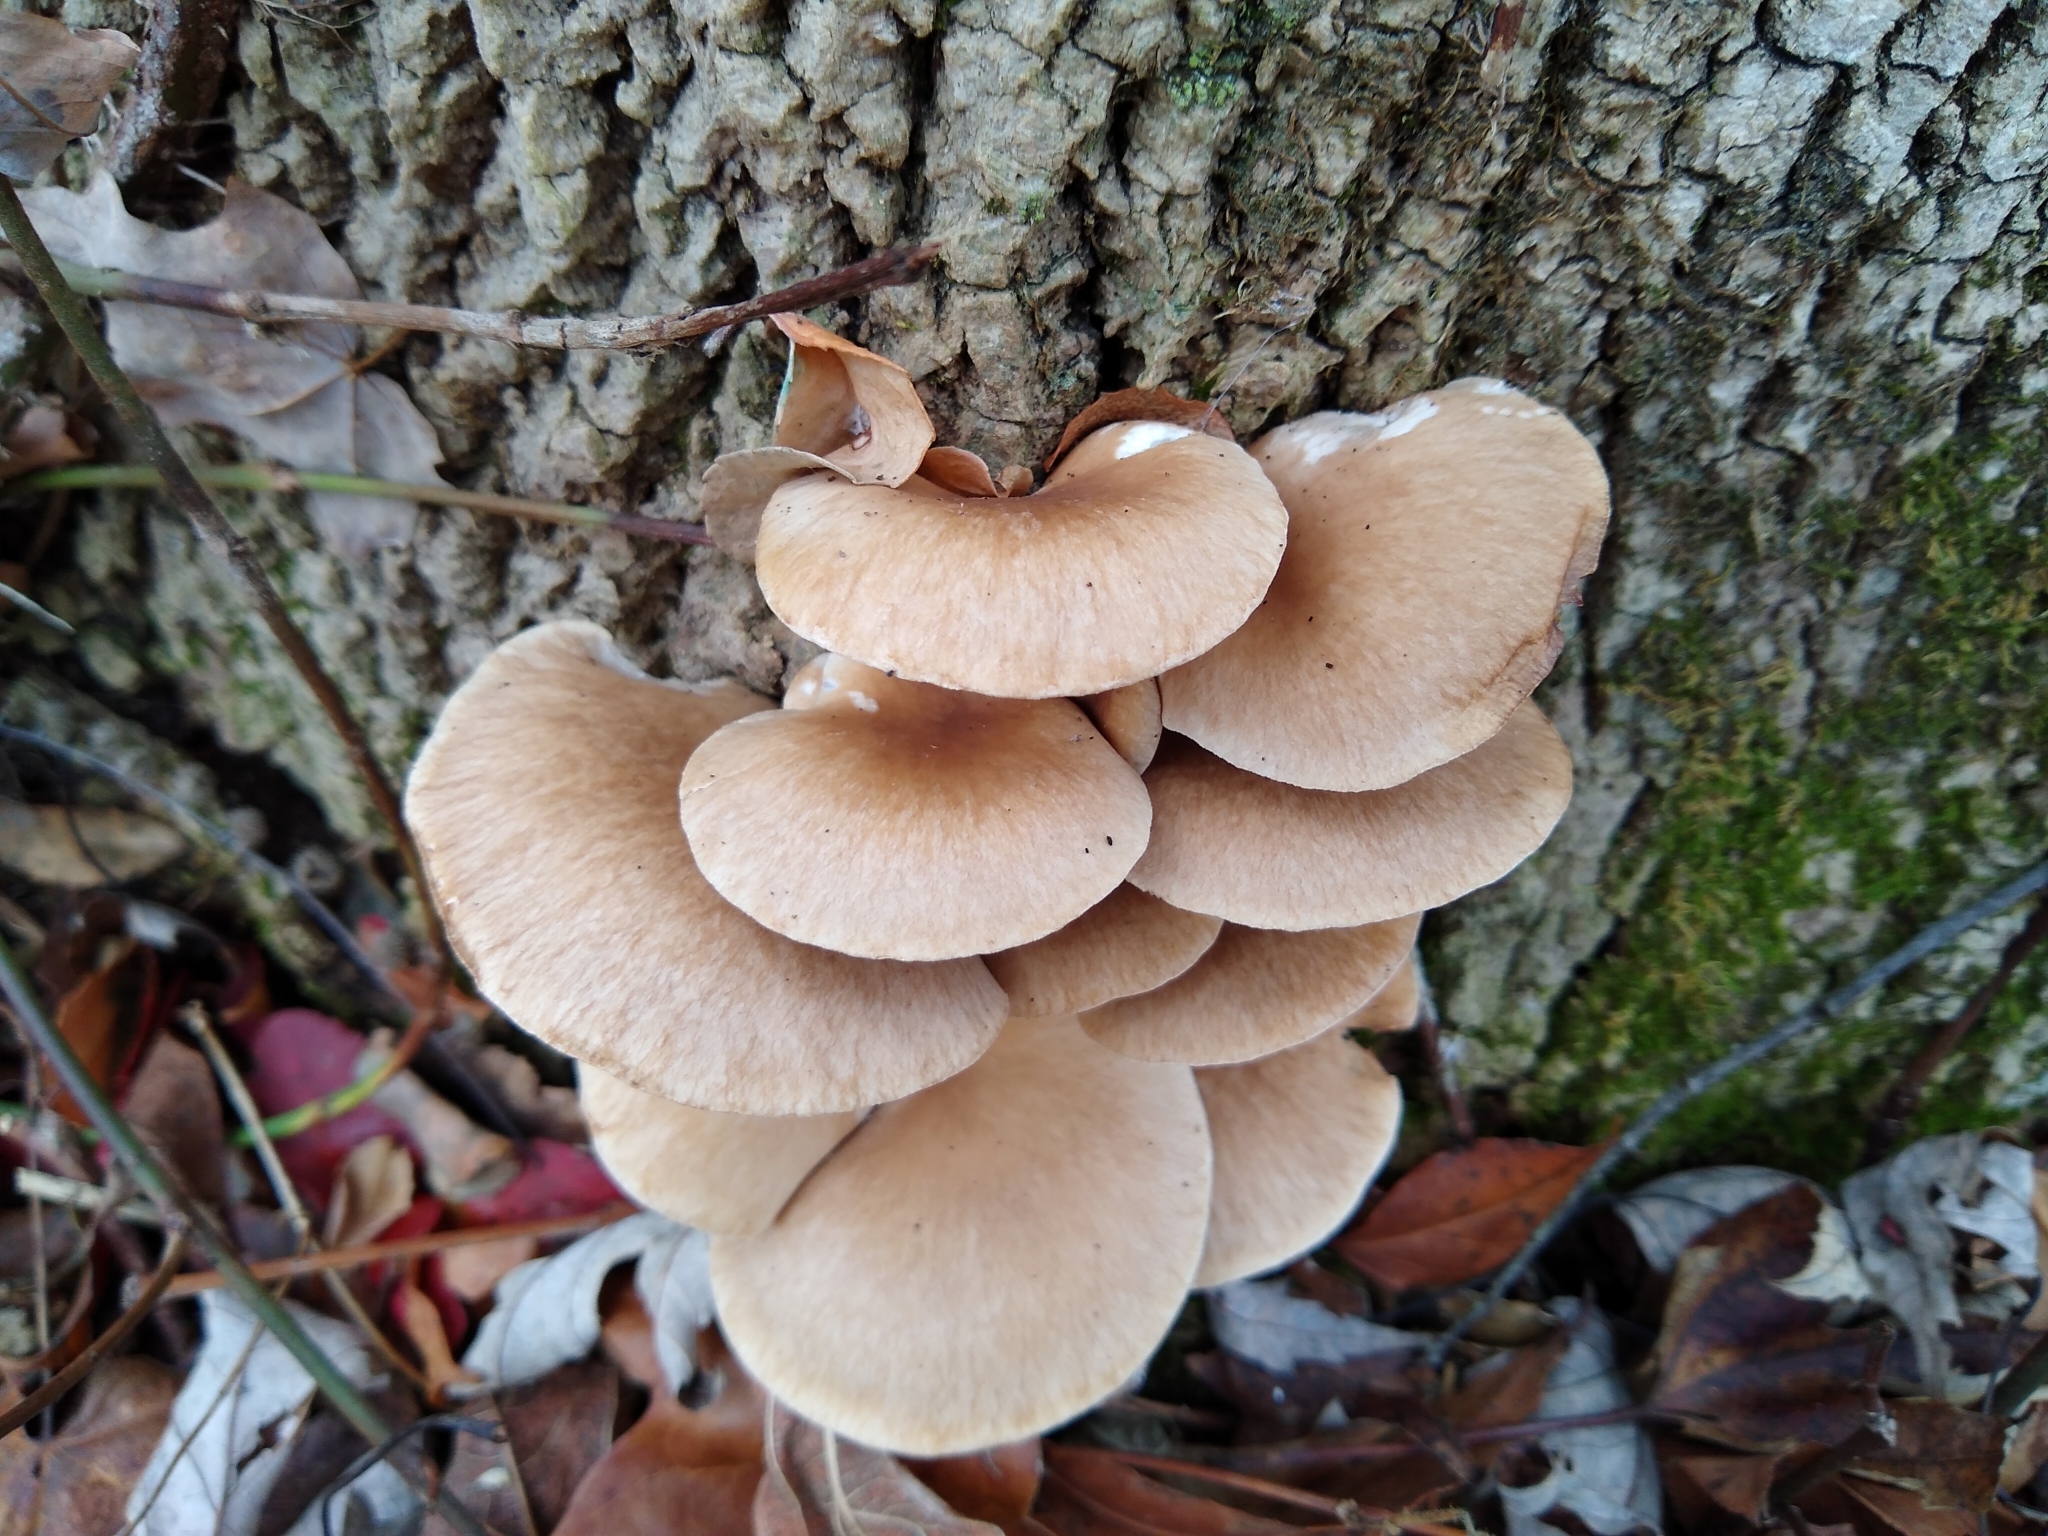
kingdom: Fungi
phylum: Basidiomycota
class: Agaricomycetes
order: Agaricales
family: Pleurotaceae
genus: Pleurotus
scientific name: Pleurotus ostreatus
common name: Oyster mushroom
